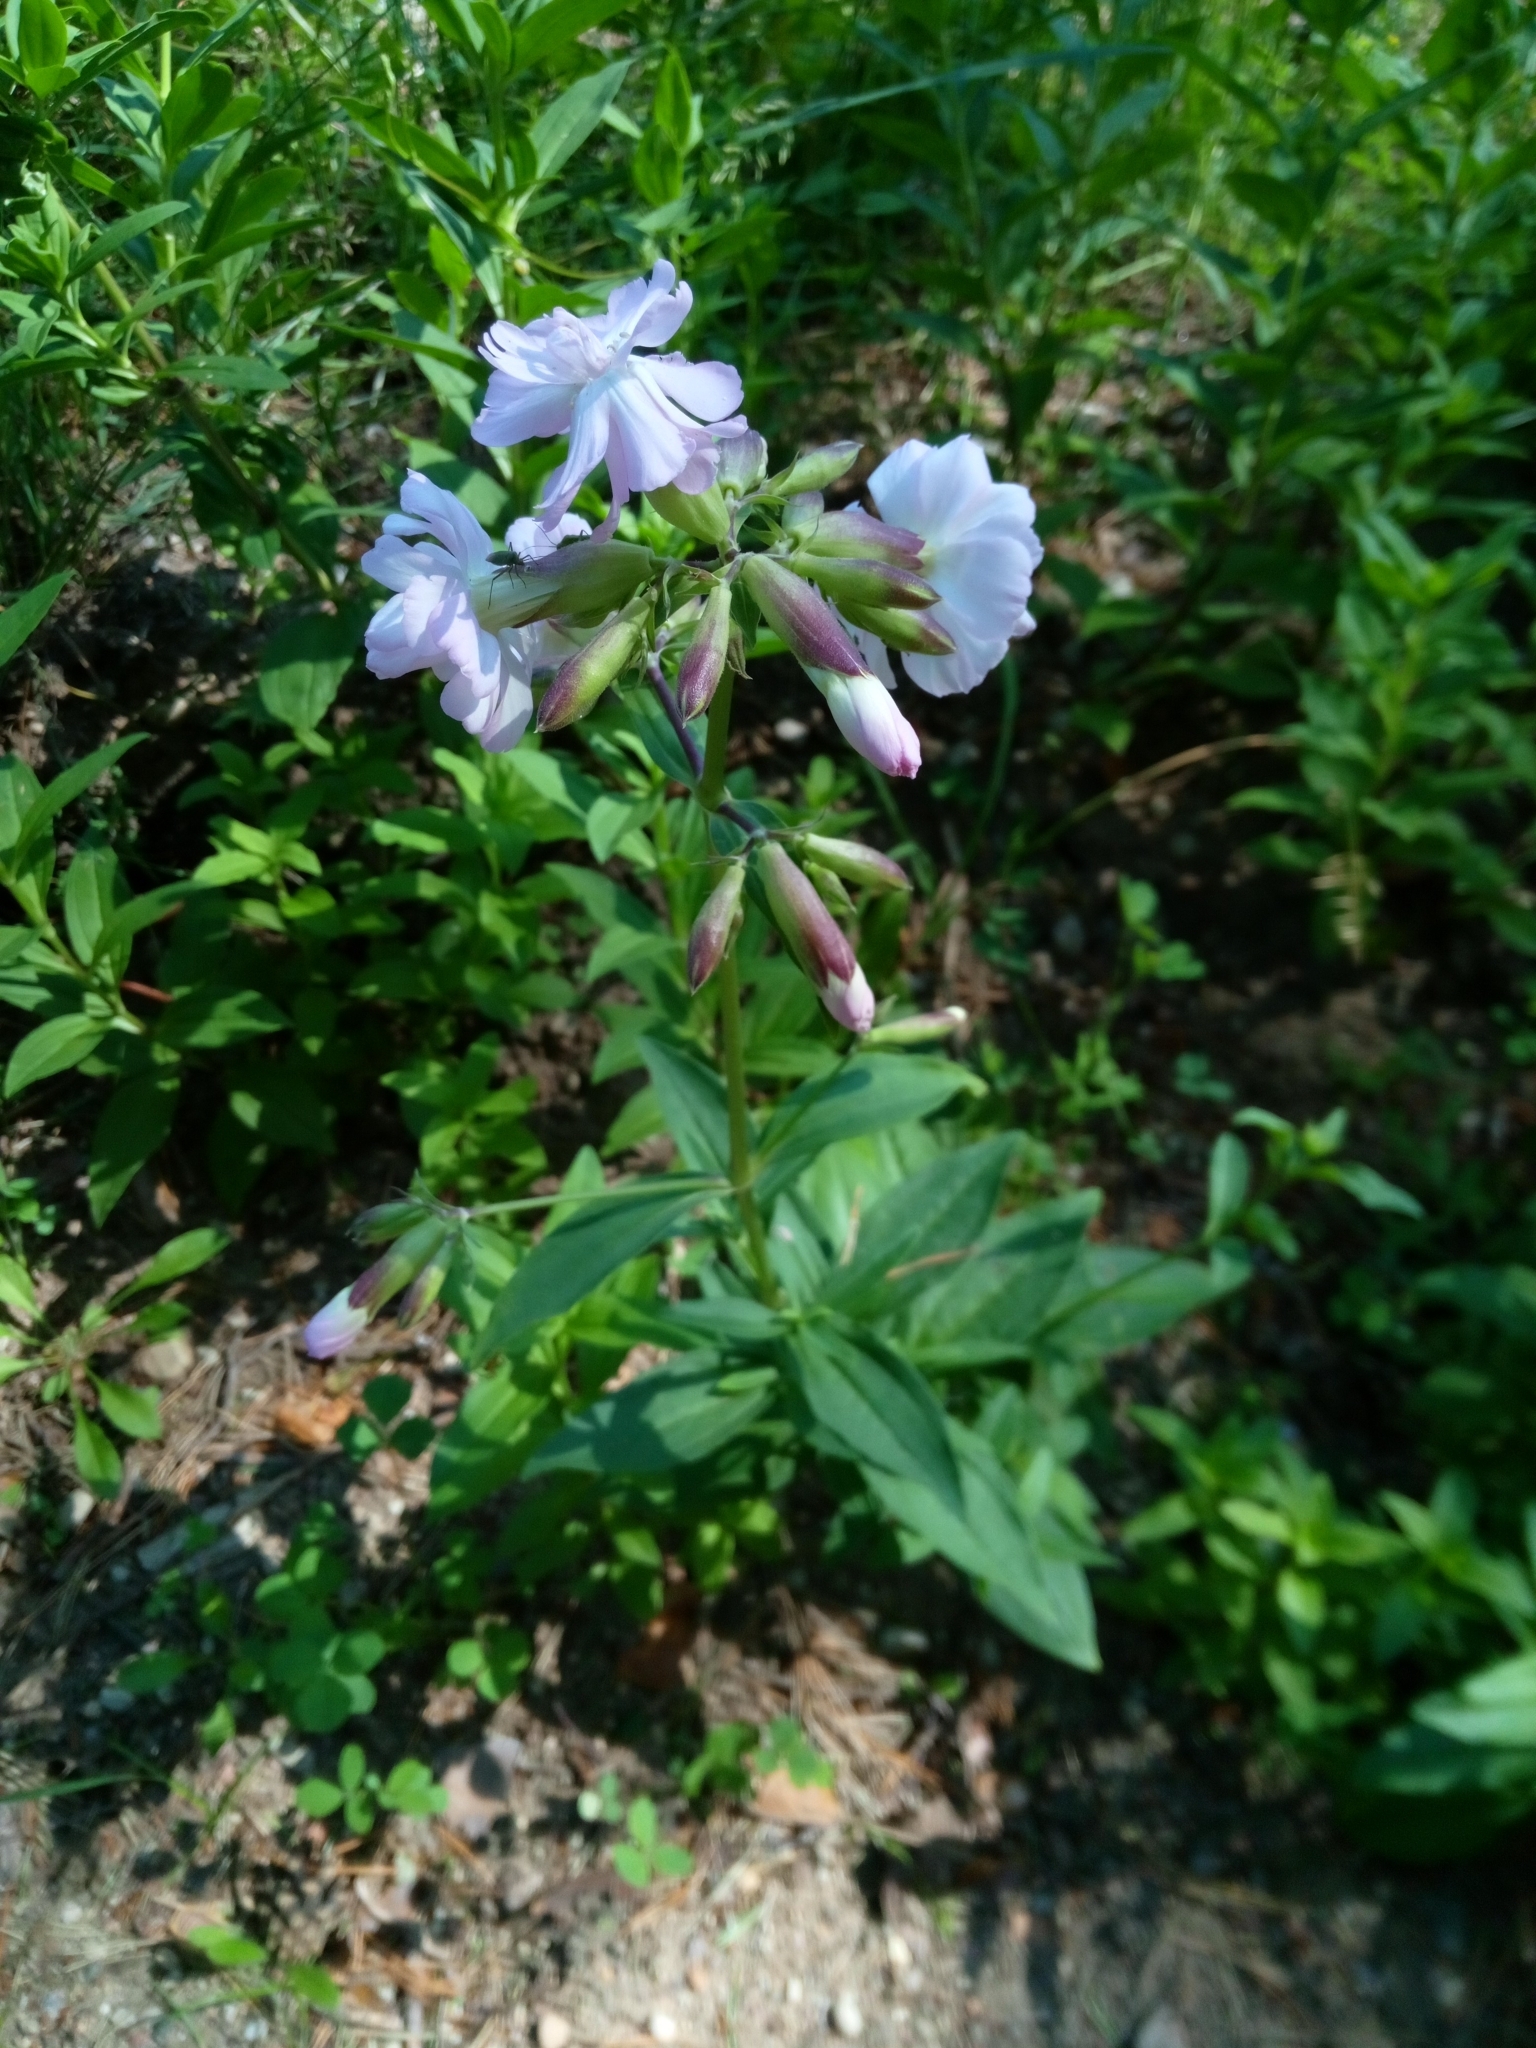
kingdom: Plantae
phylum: Tracheophyta
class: Magnoliopsida
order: Caryophyllales
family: Caryophyllaceae
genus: Saponaria
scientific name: Saponaria officinalis
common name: Soapwort
